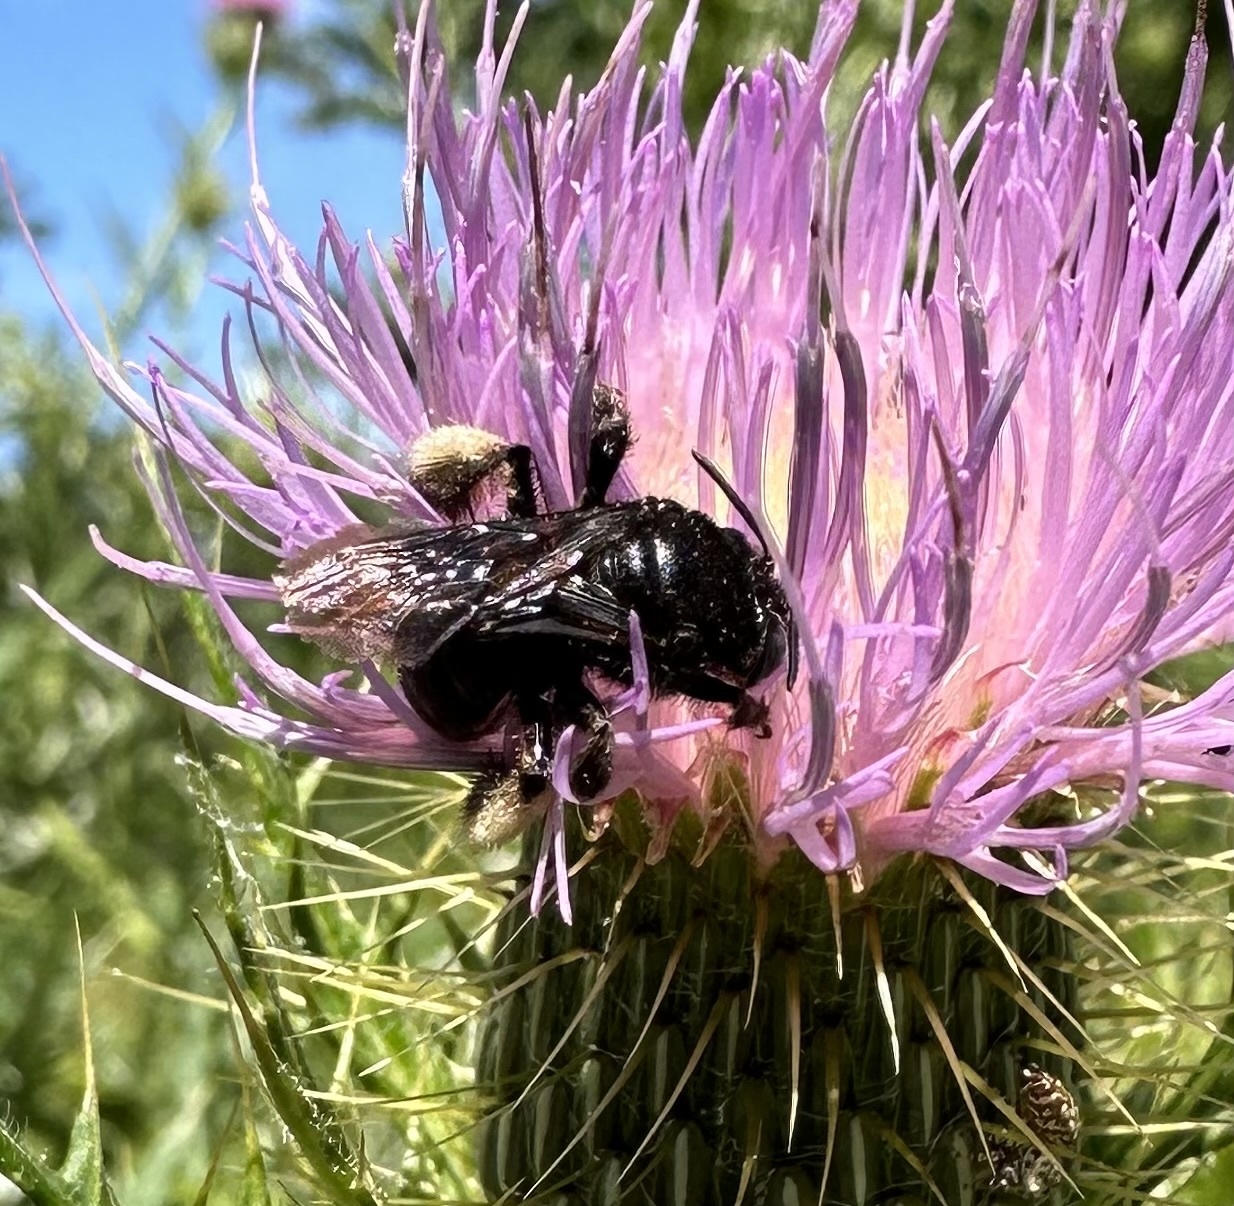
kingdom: Animalia
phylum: Arthropoda
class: Insecta
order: Hymenoptera
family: Apidae
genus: Melissodes
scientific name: Melissodes bimaculatus
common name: Two-spotted long-horned bee
